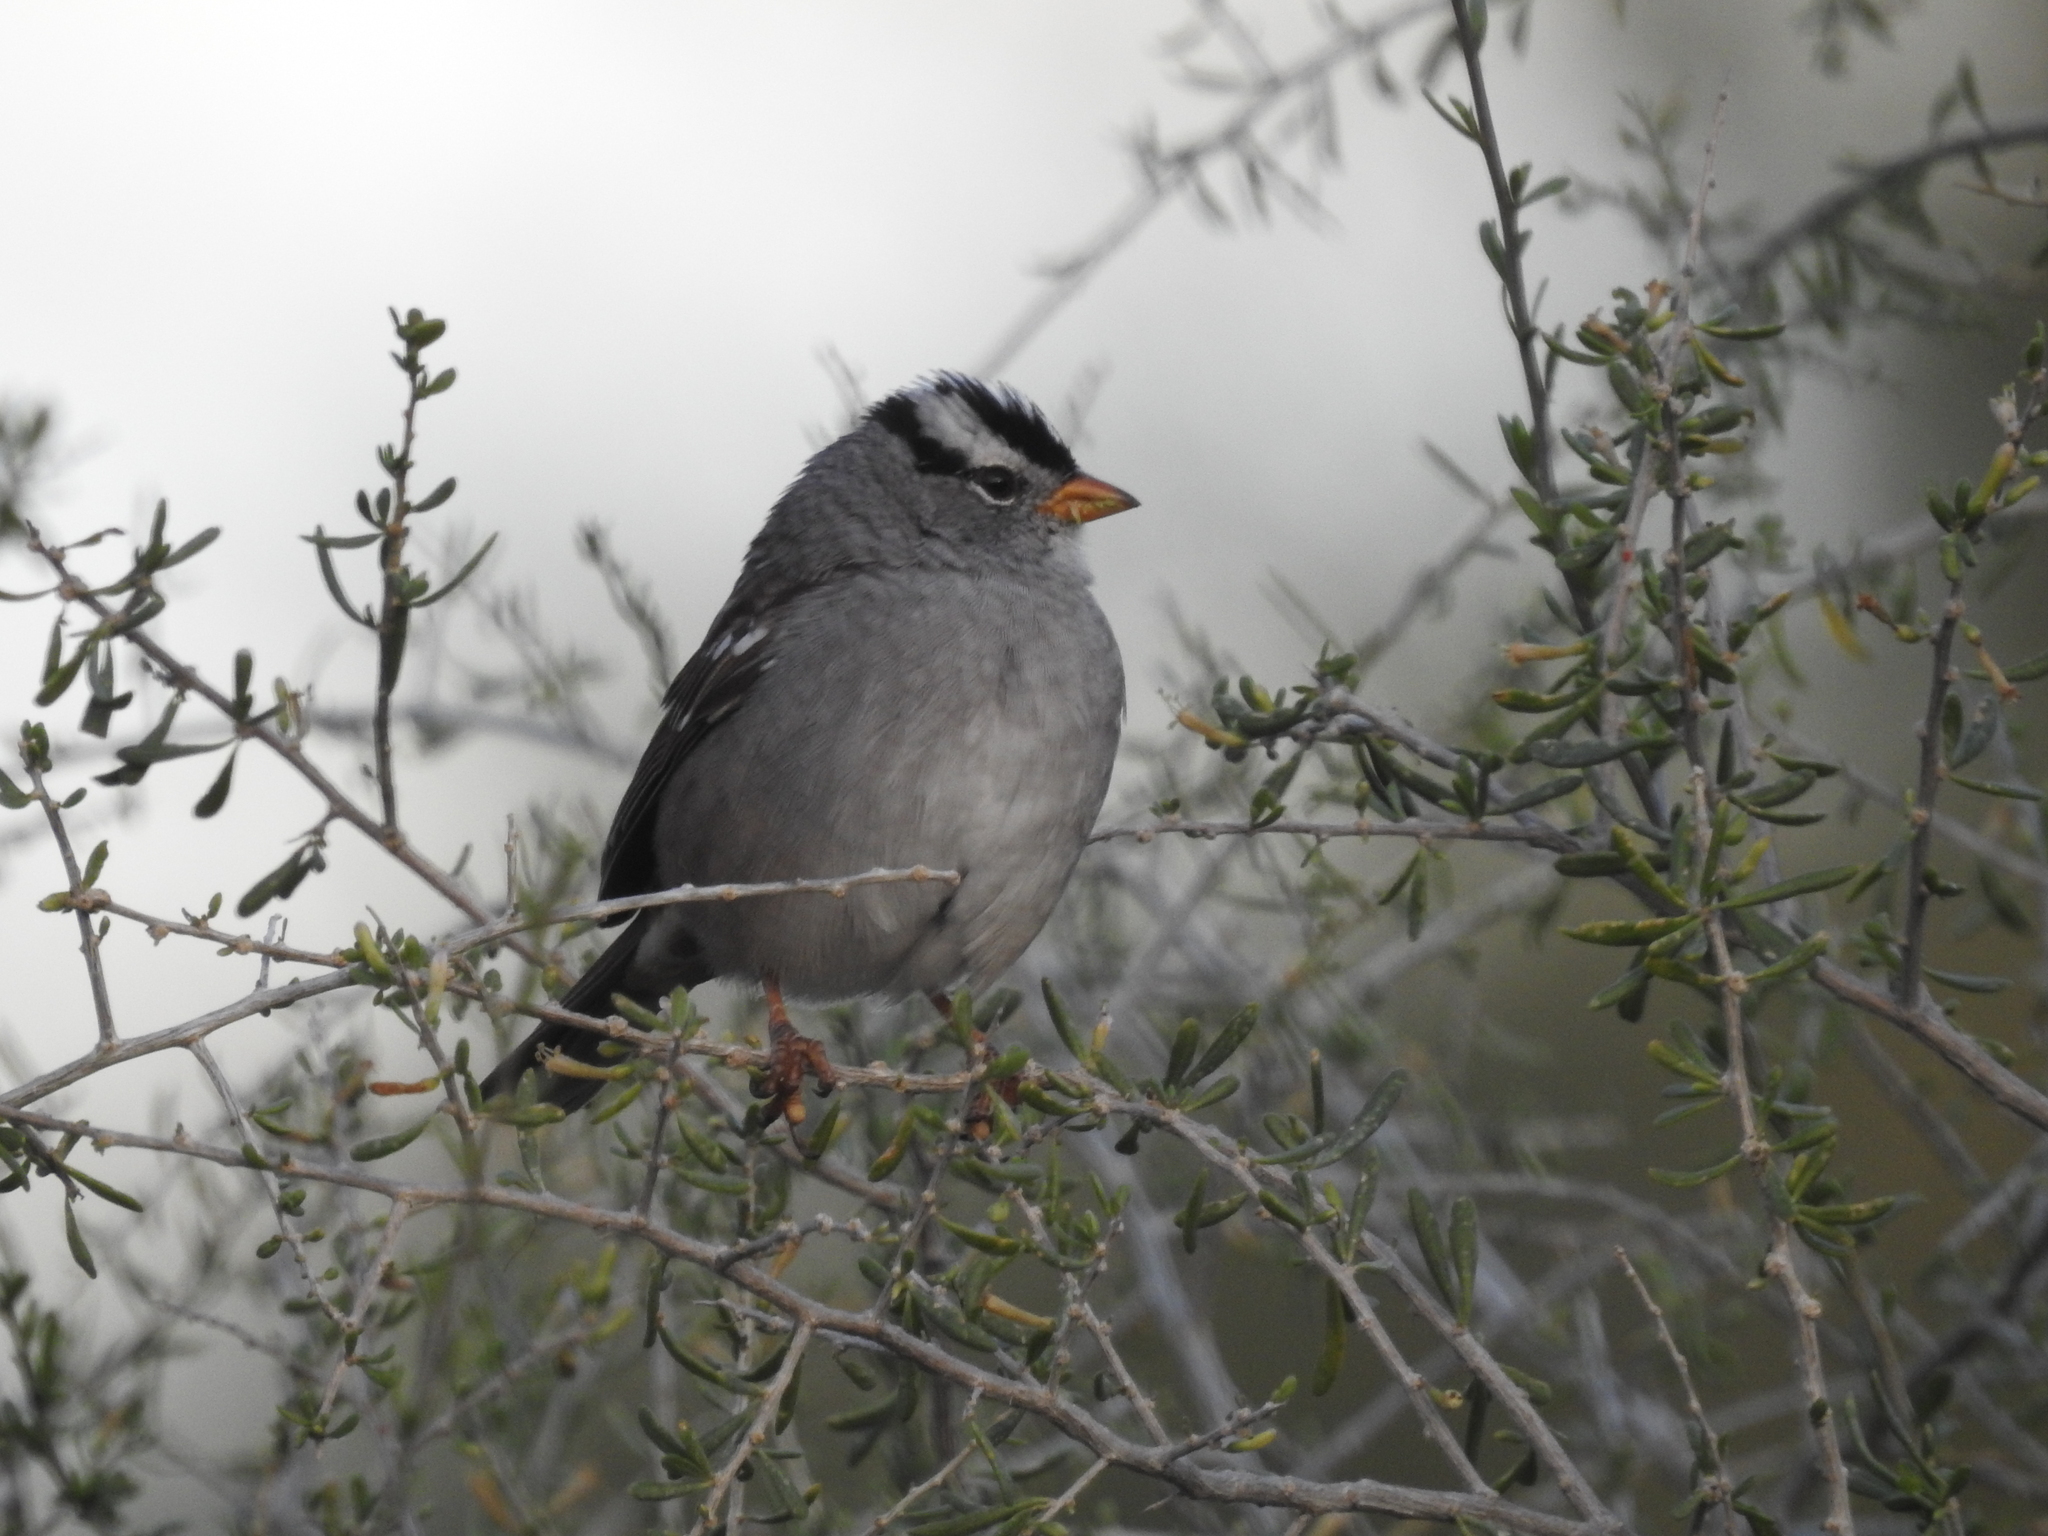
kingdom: Animalia
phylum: Chordata
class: Aves
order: Passeriformes
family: Passerellidae
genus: Zonotrichia
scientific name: Zonotrichia leucophrys
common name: White-crowned sparrow
